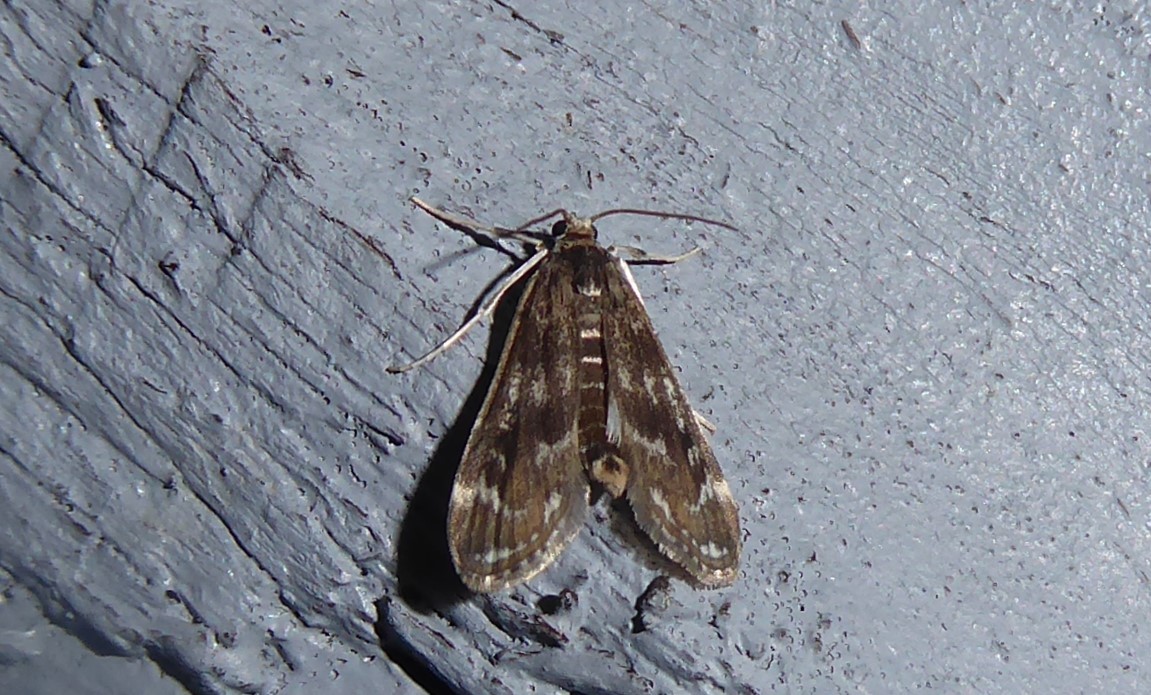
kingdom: Animalia
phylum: Arthropoda
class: Insecta
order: Lepidoptera
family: Crambidae
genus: Hygraula
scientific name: Hygraula nitens
